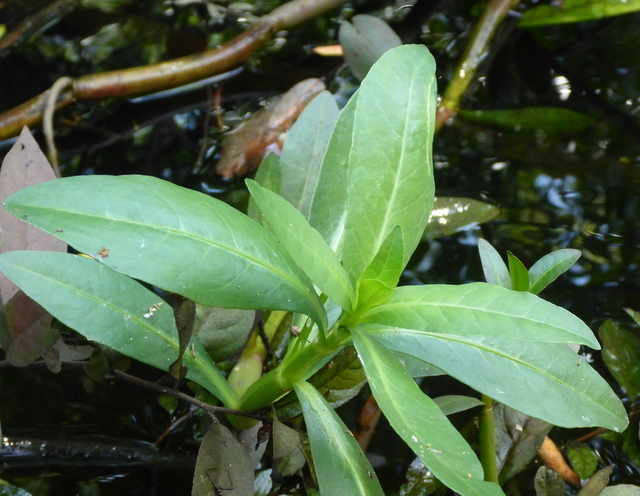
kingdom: Plantae
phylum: Tracheophyta
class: Magnoliopsida
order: Caryophyllales
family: Amaranthaceae
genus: Alternanthera
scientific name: Alternanthera philoxeroides
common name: Alligatorweed
